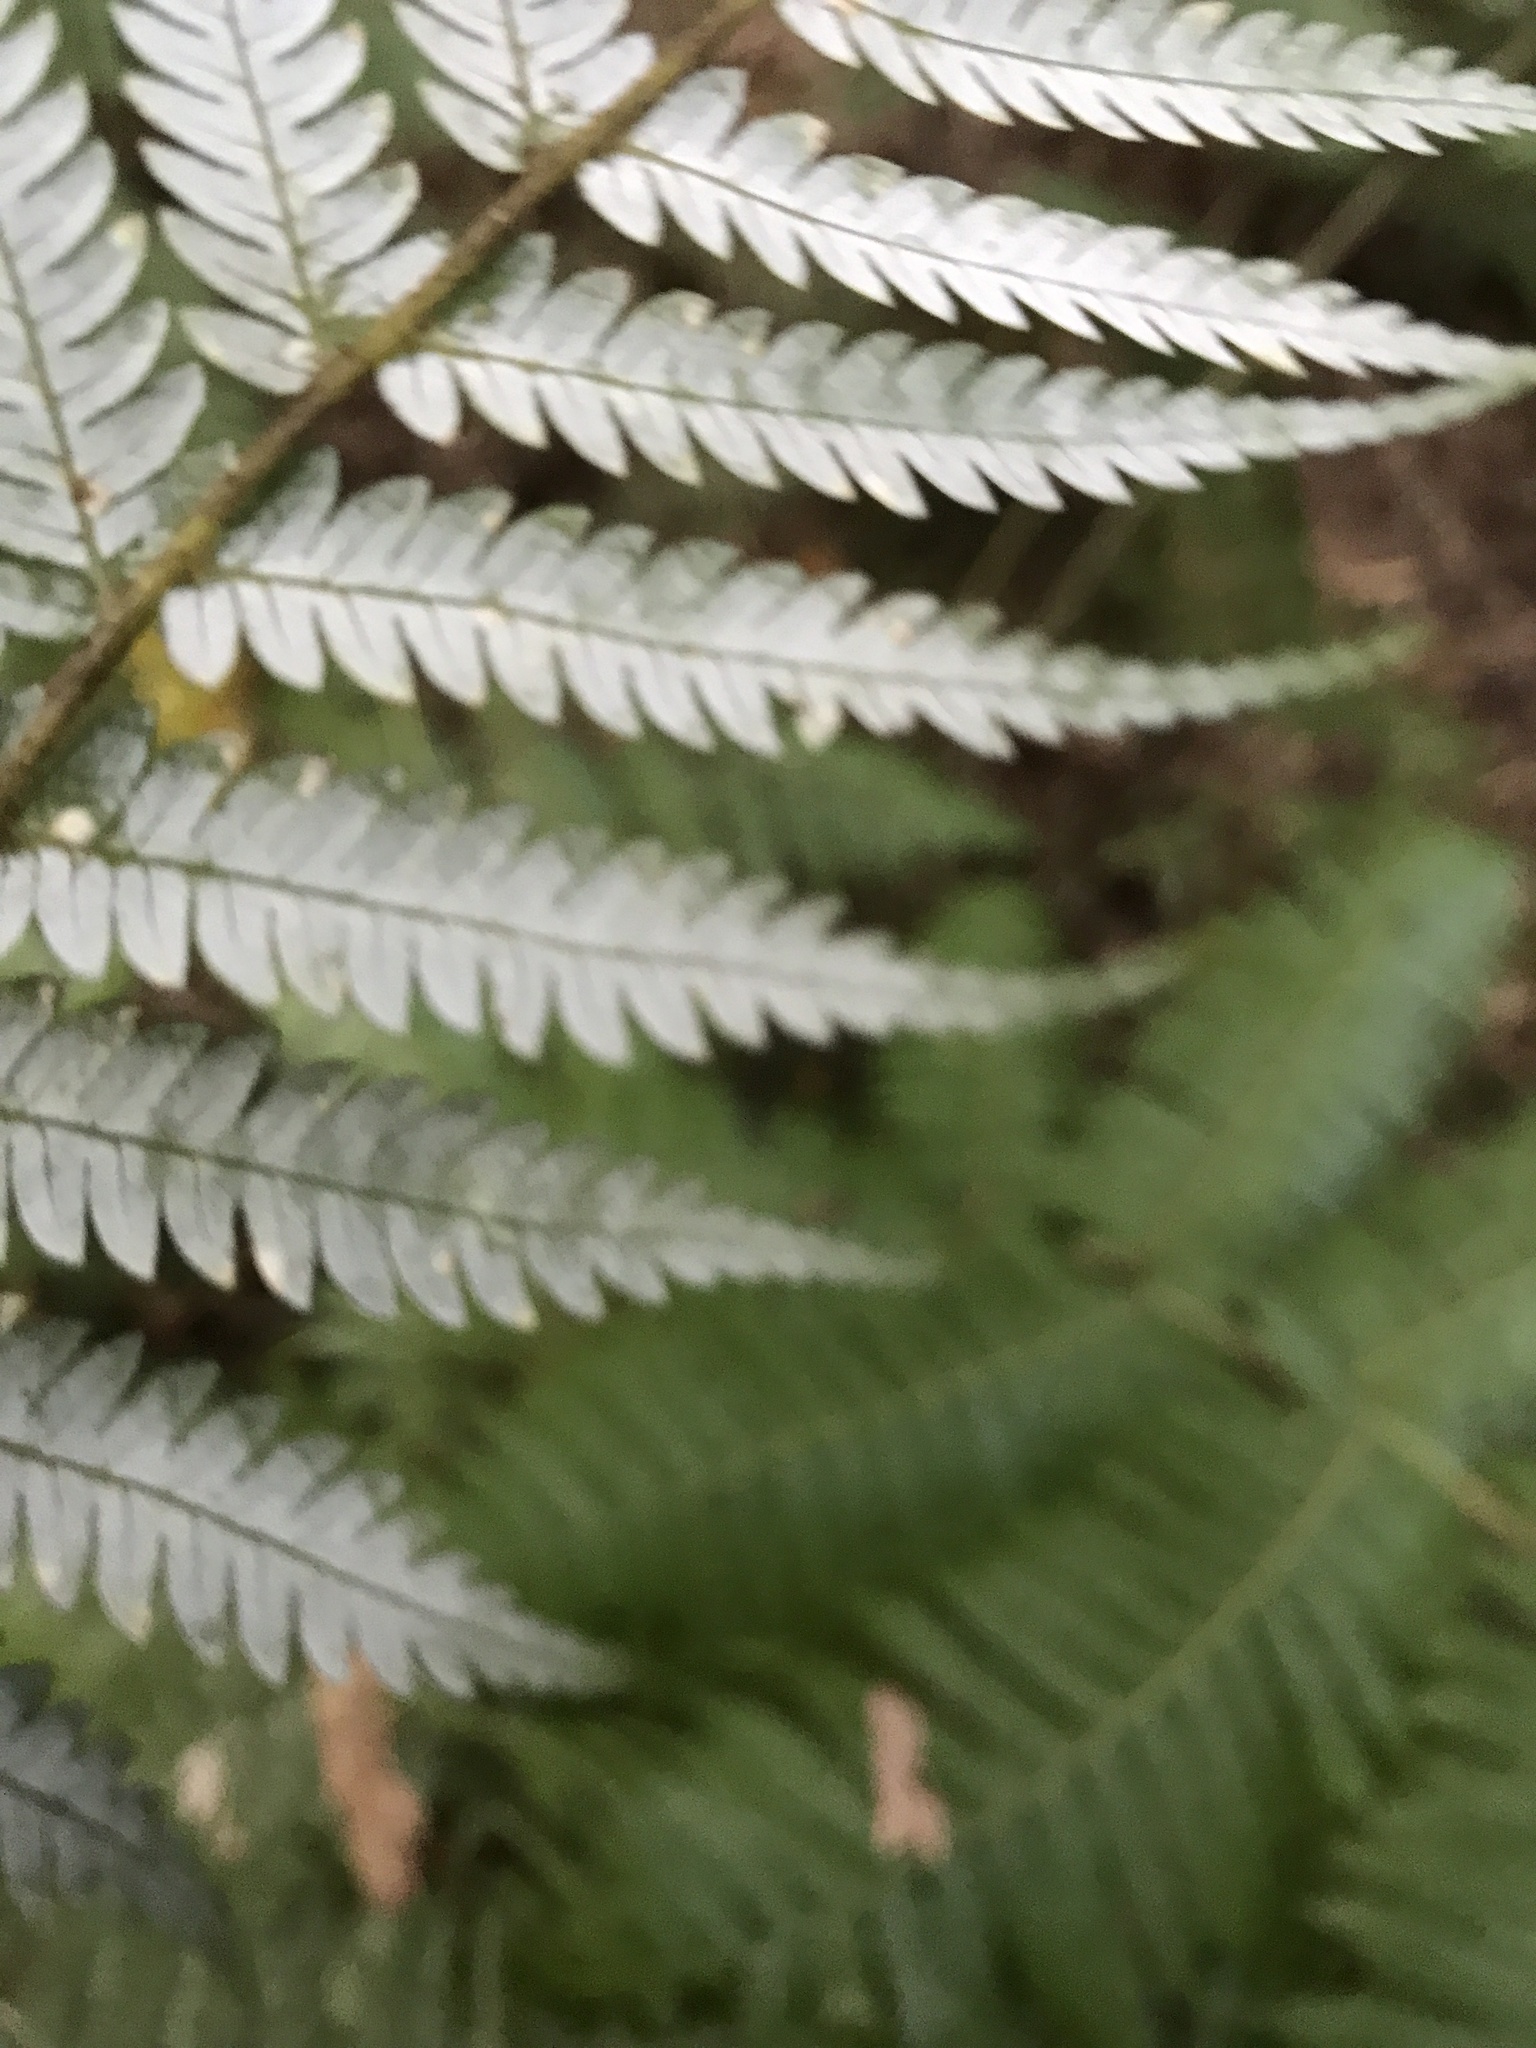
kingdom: Plantae
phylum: Tracheophyta
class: Polypodiopsida
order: Cyatheales
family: Cyatheaceae
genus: Alsophila
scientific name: Alsophila dealbata
